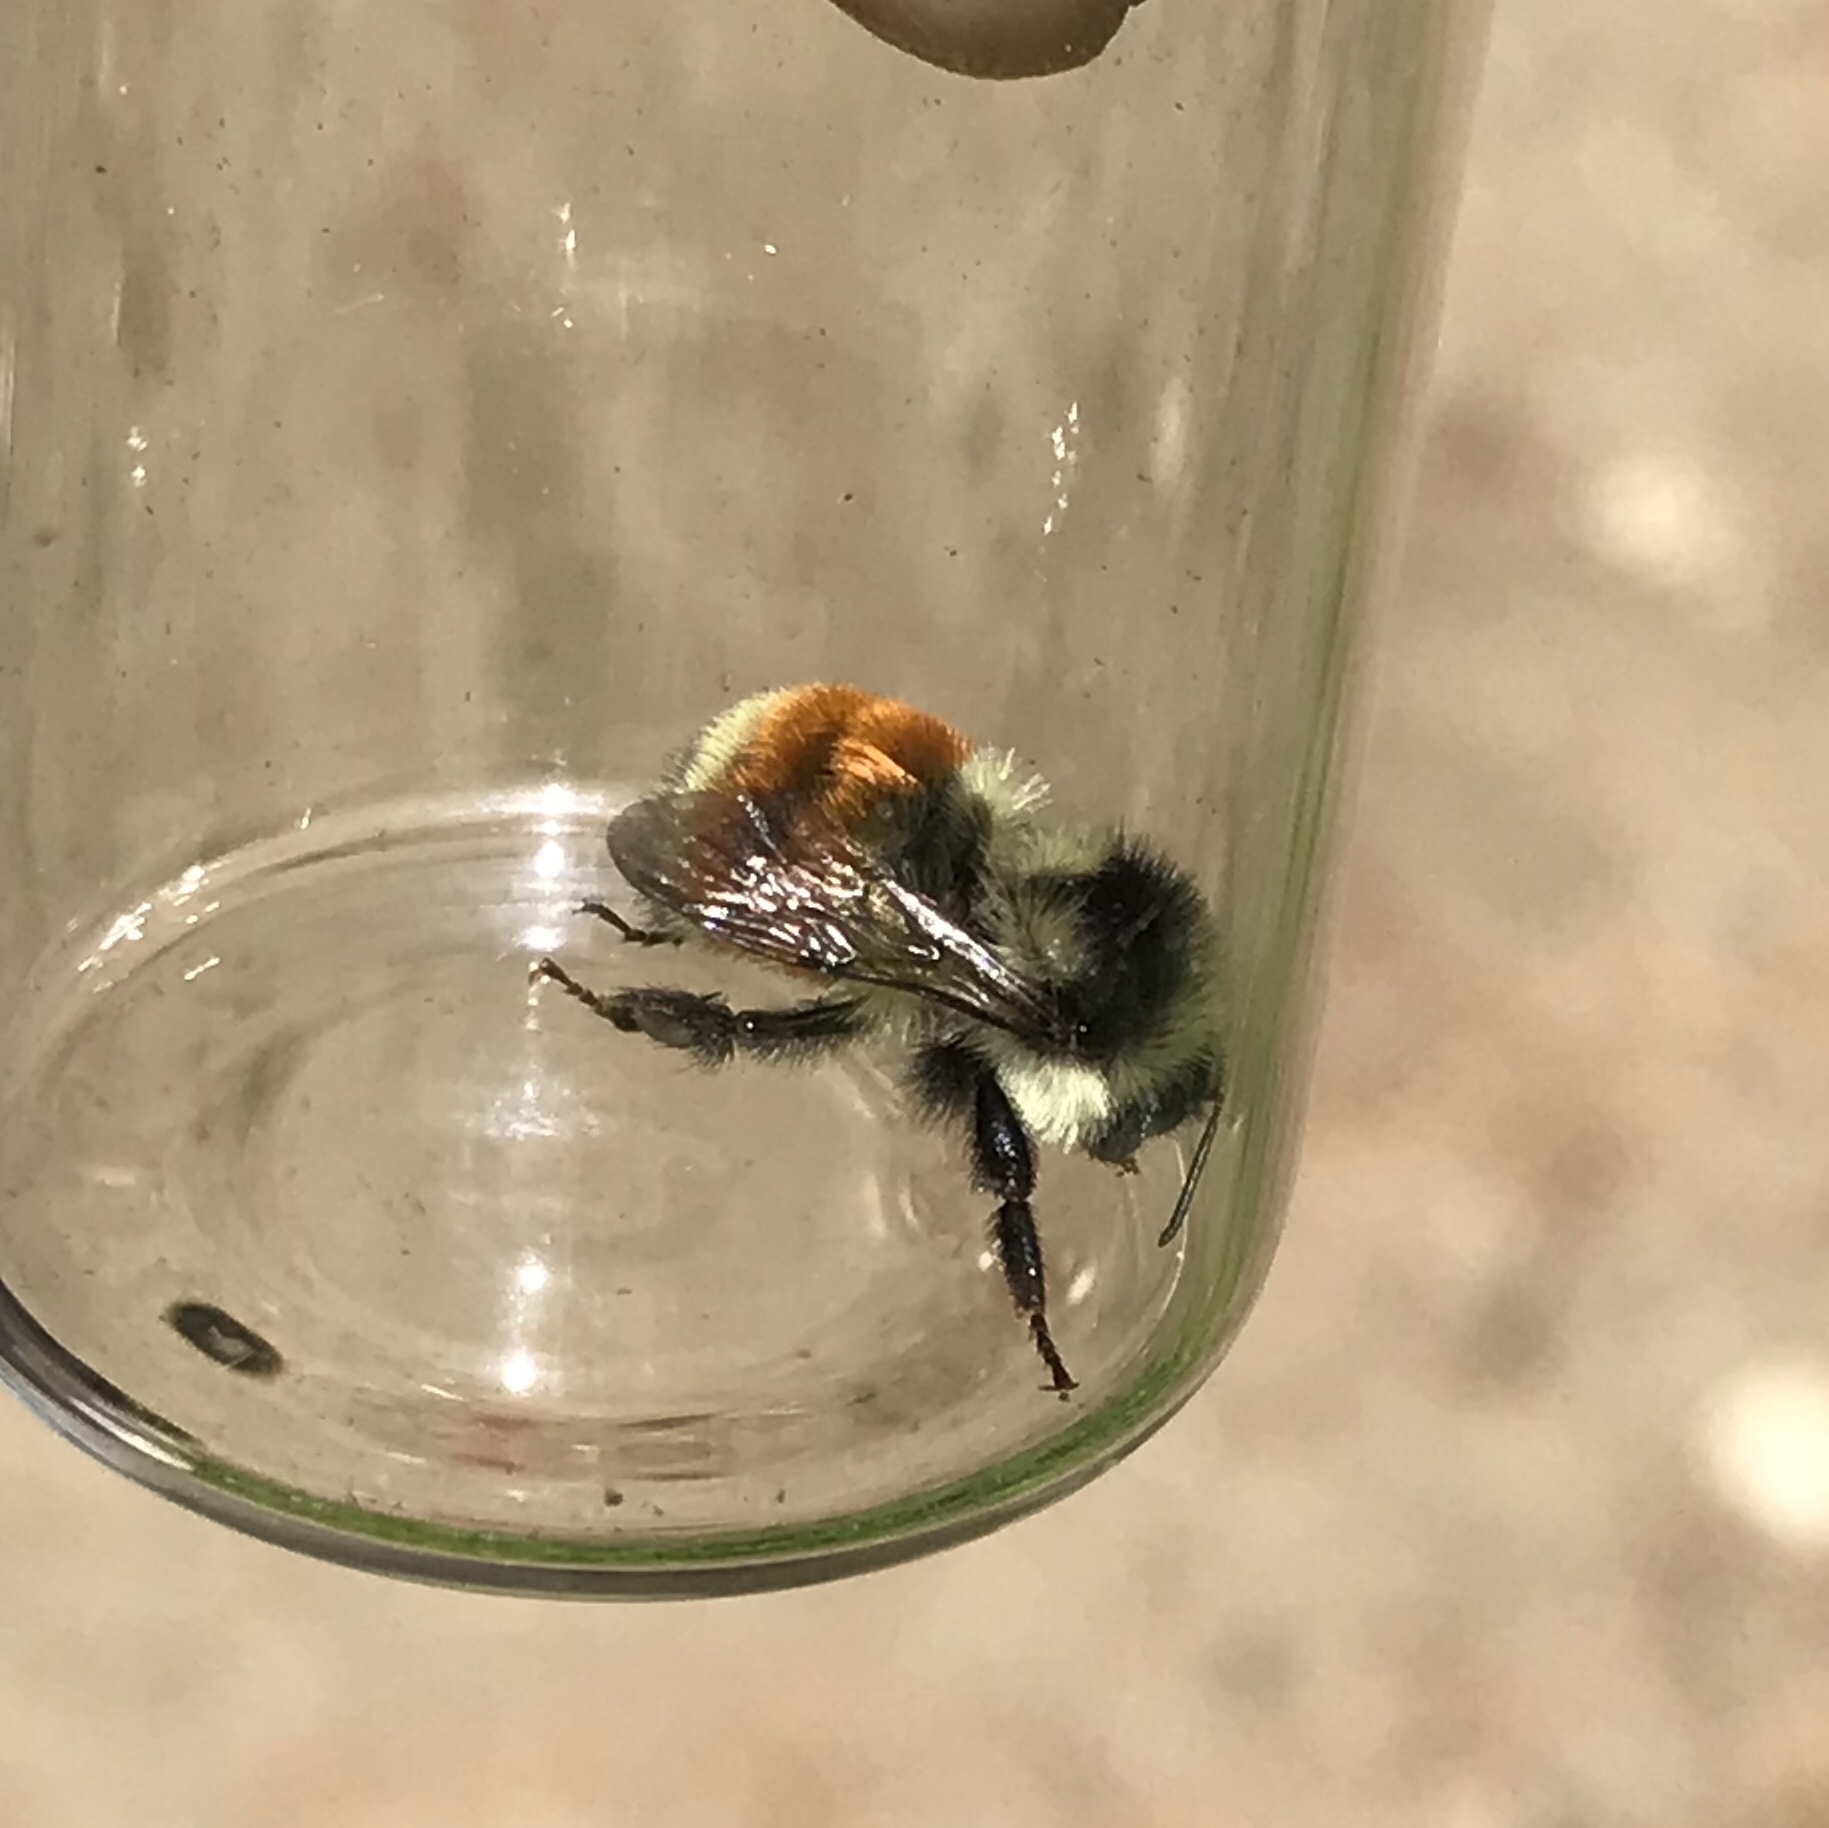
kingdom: Animalia
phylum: Arthropoda
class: Insecta
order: Hymenoptera
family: Apidae
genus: Bombus
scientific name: Bombus ternarius
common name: Tri-colored bumble bee
